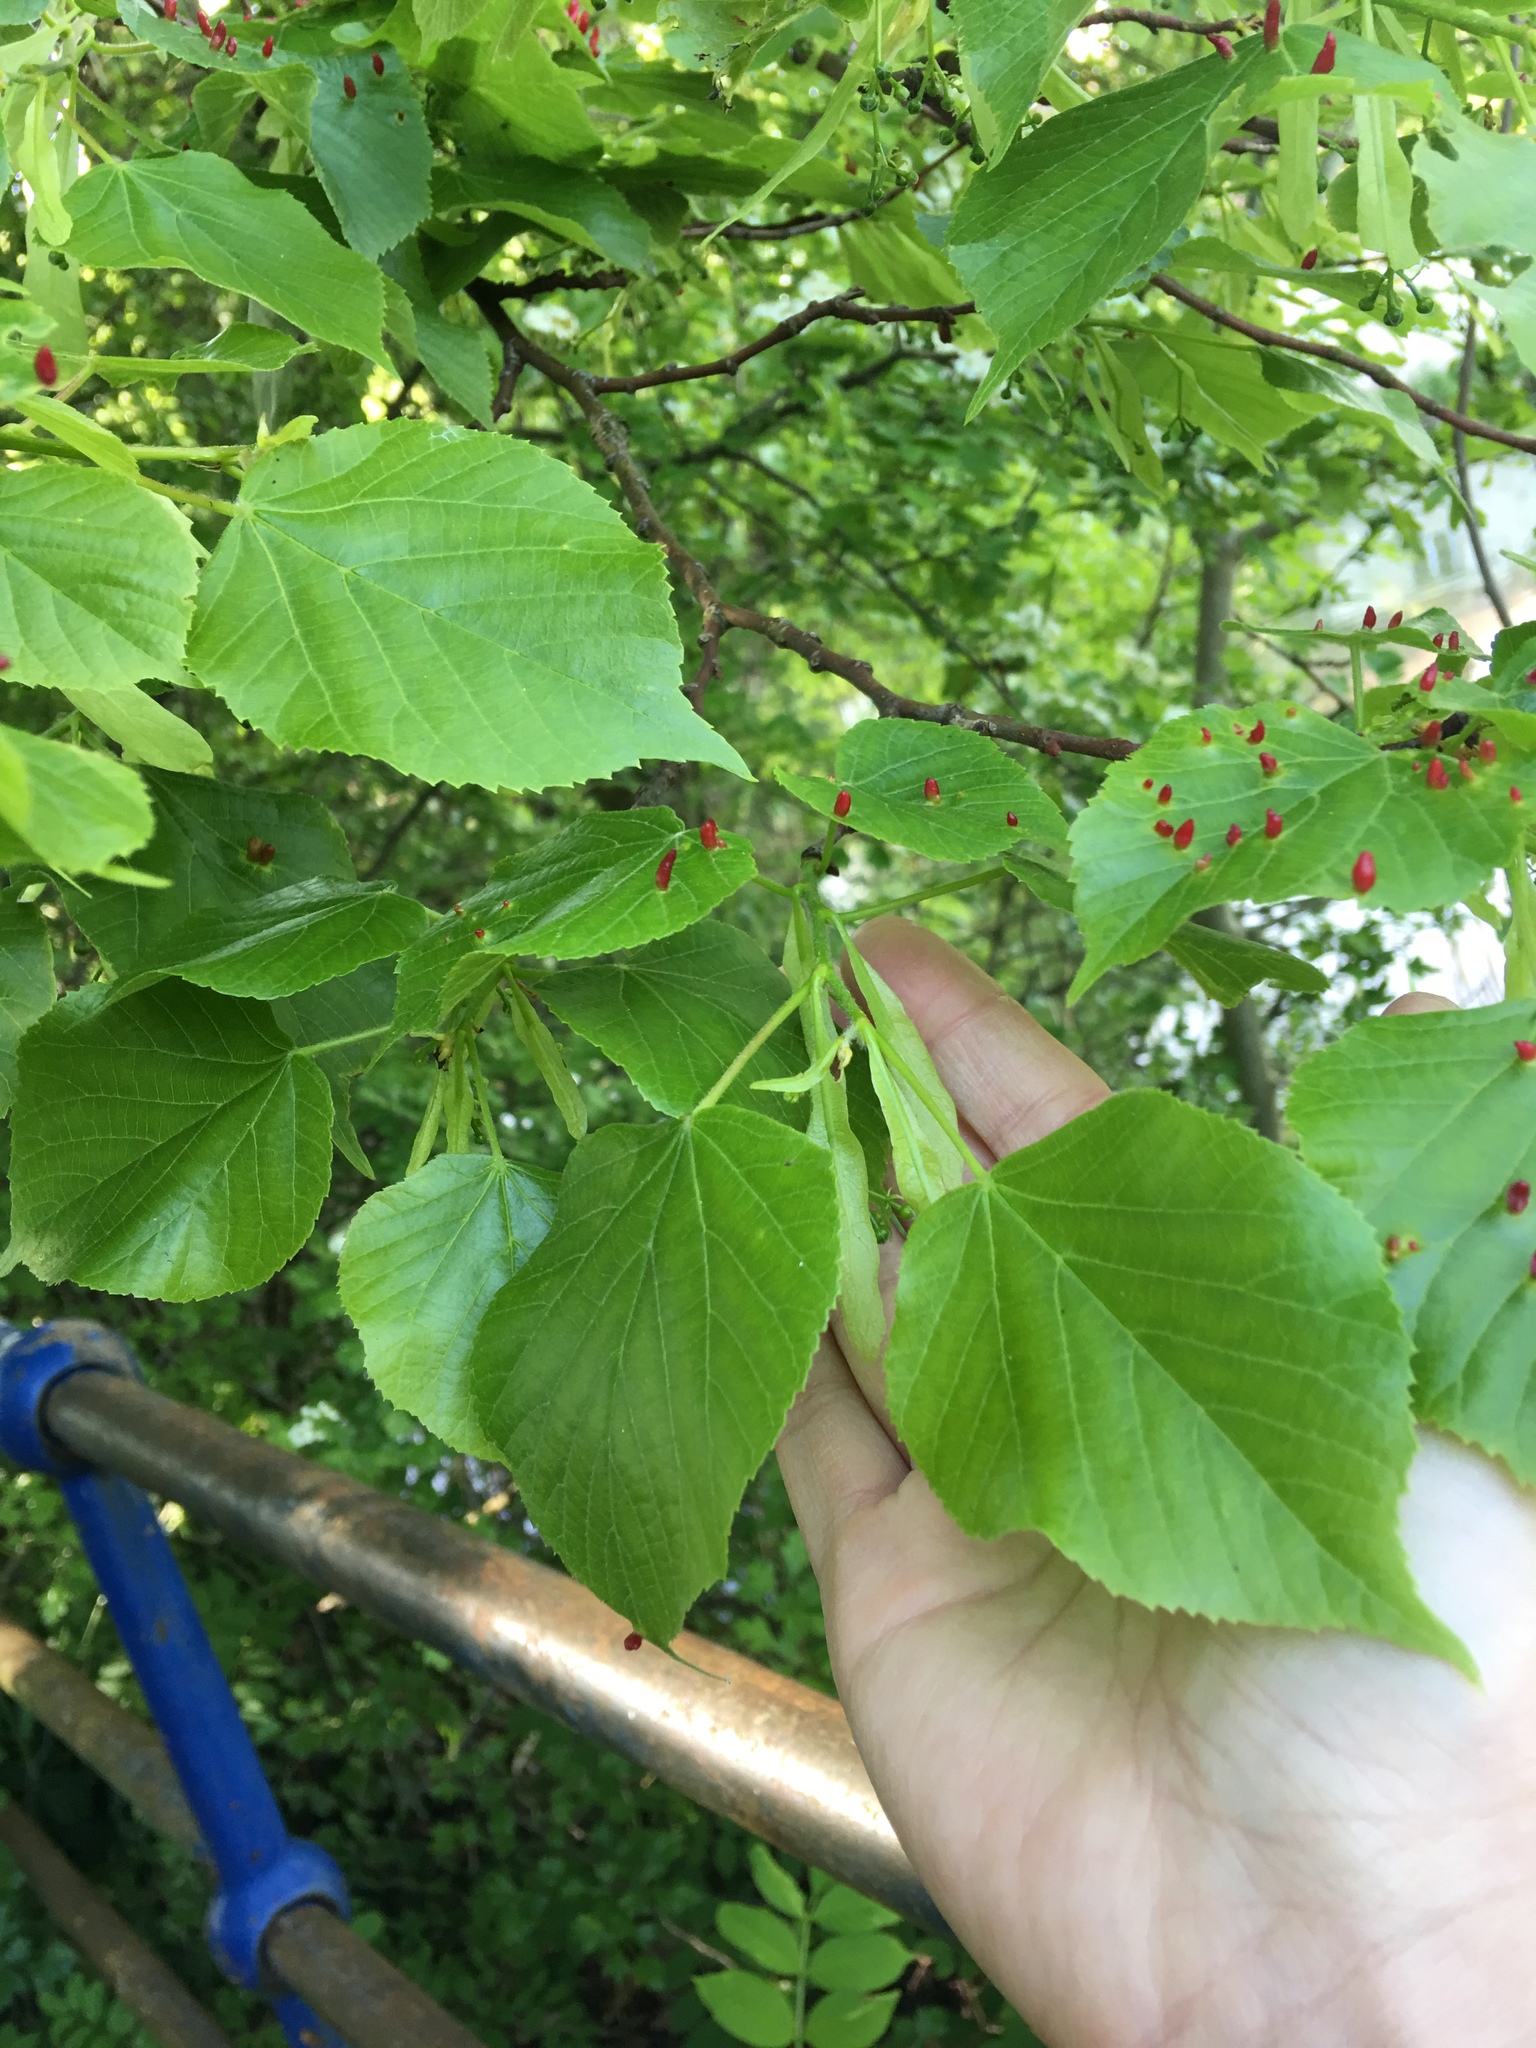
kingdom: Animalia
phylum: Arthropoda
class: Arachnida
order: Trombidiformes
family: Eriophyidae
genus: Eriophyes
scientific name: Eriophyes tiliae
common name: Red nail gall mite
